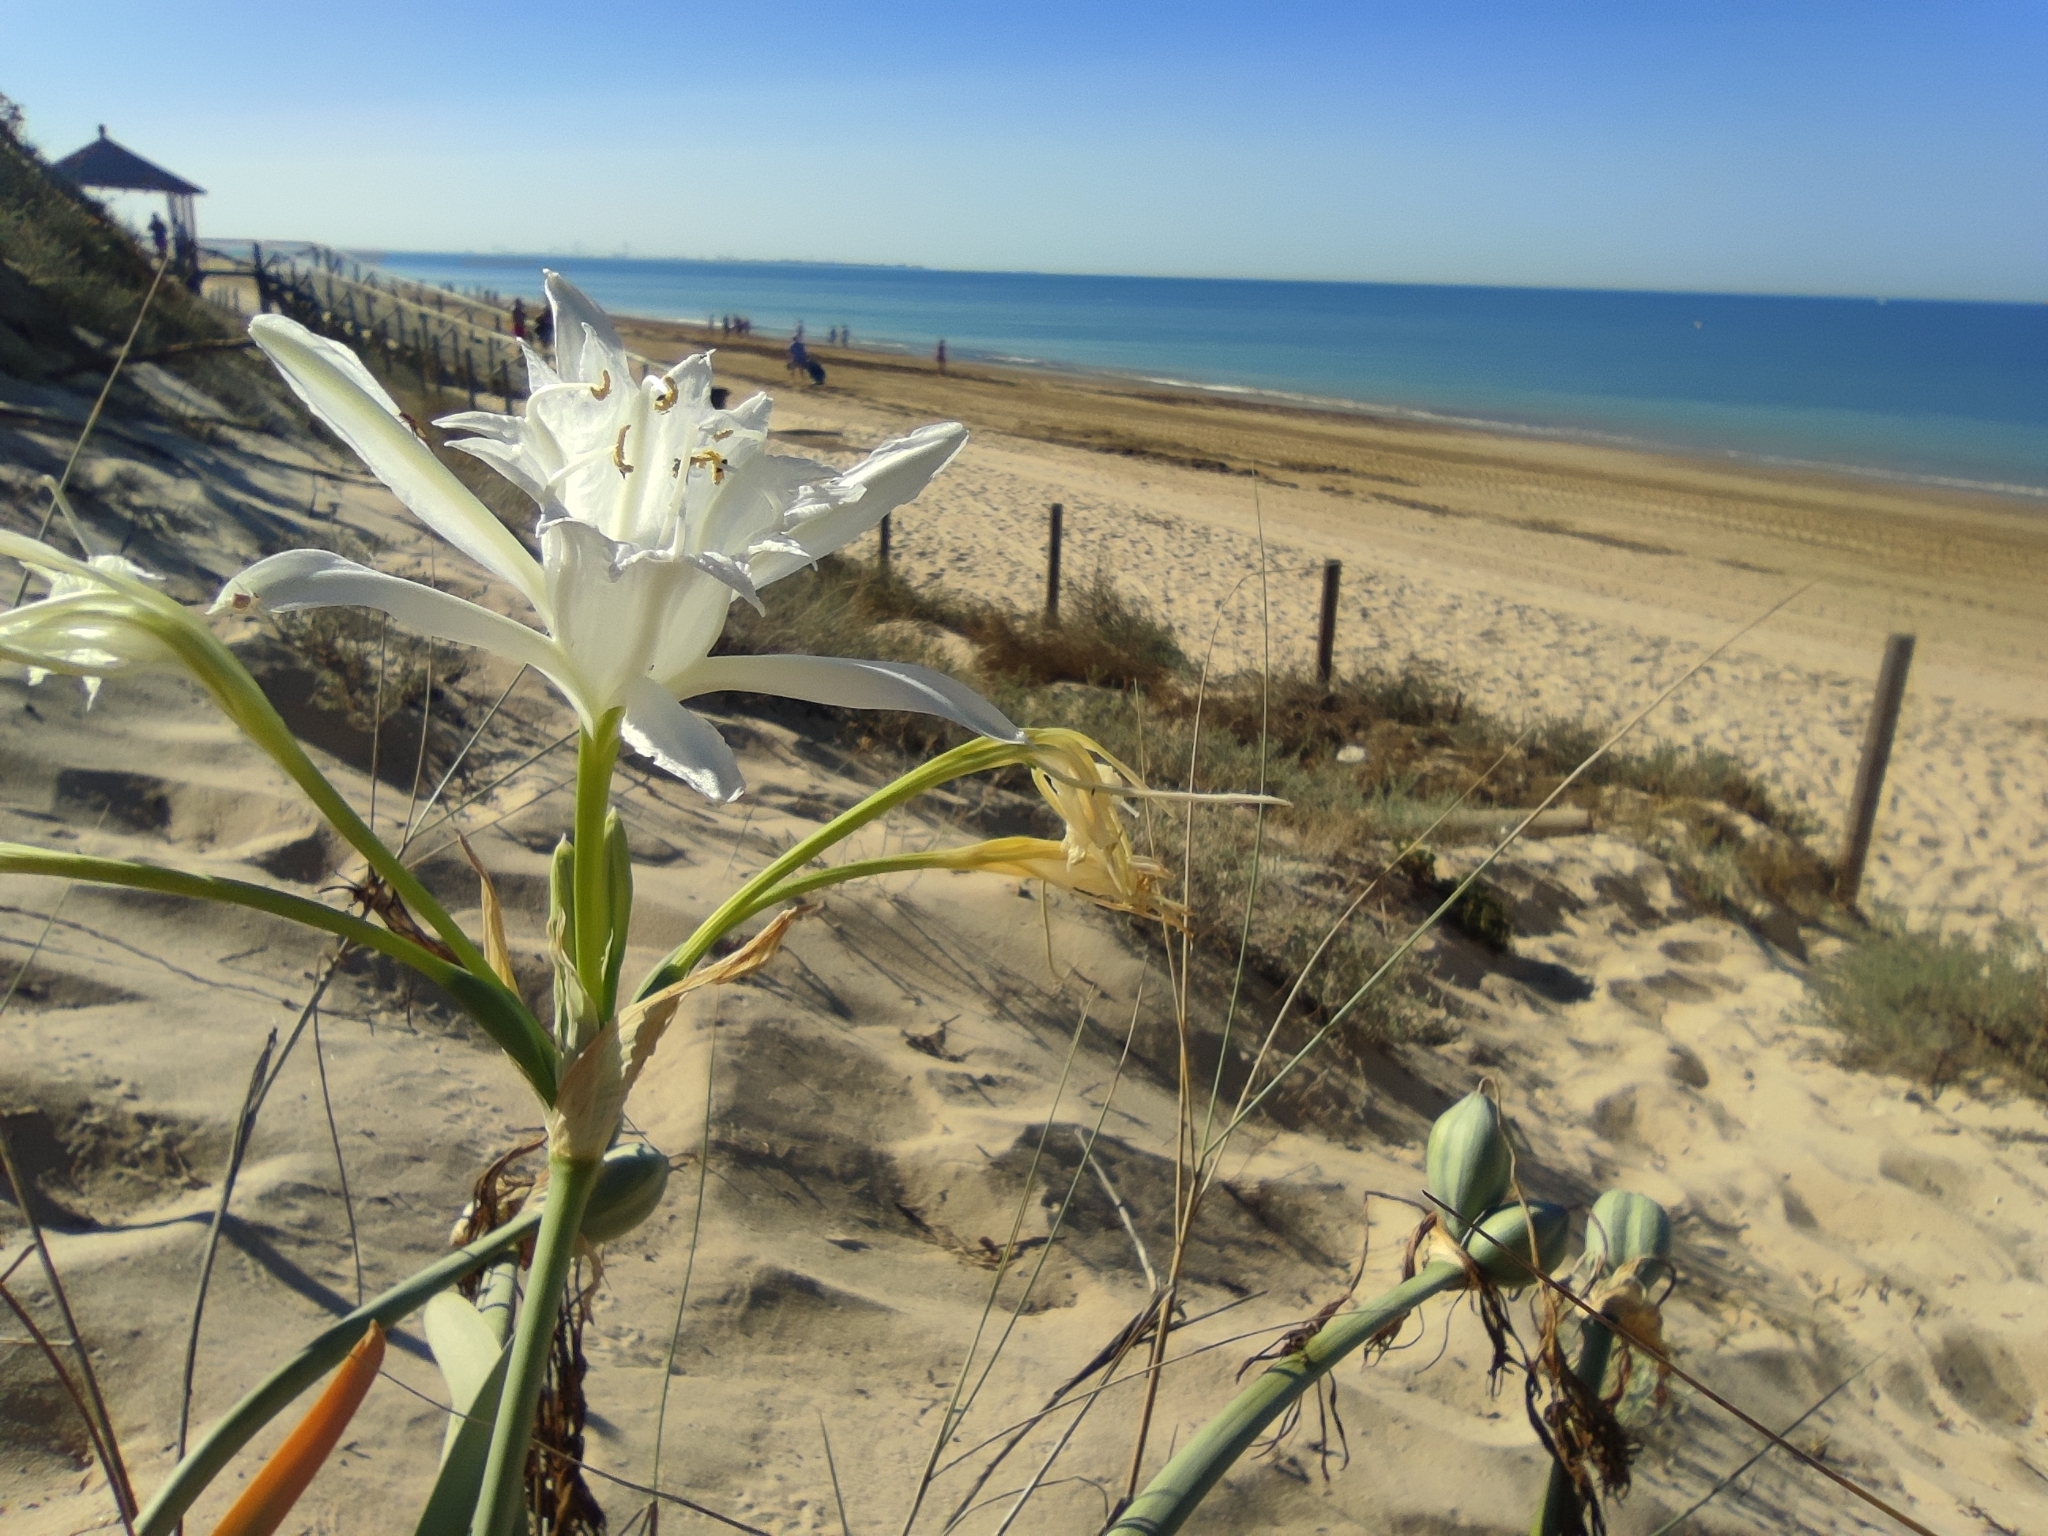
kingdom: Plantae
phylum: Tracheophyta
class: Liliopsida
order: Asparagales
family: Amaryllidaceae
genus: Pancratium
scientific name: Pancratium maritimum
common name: Sea-daffodil
